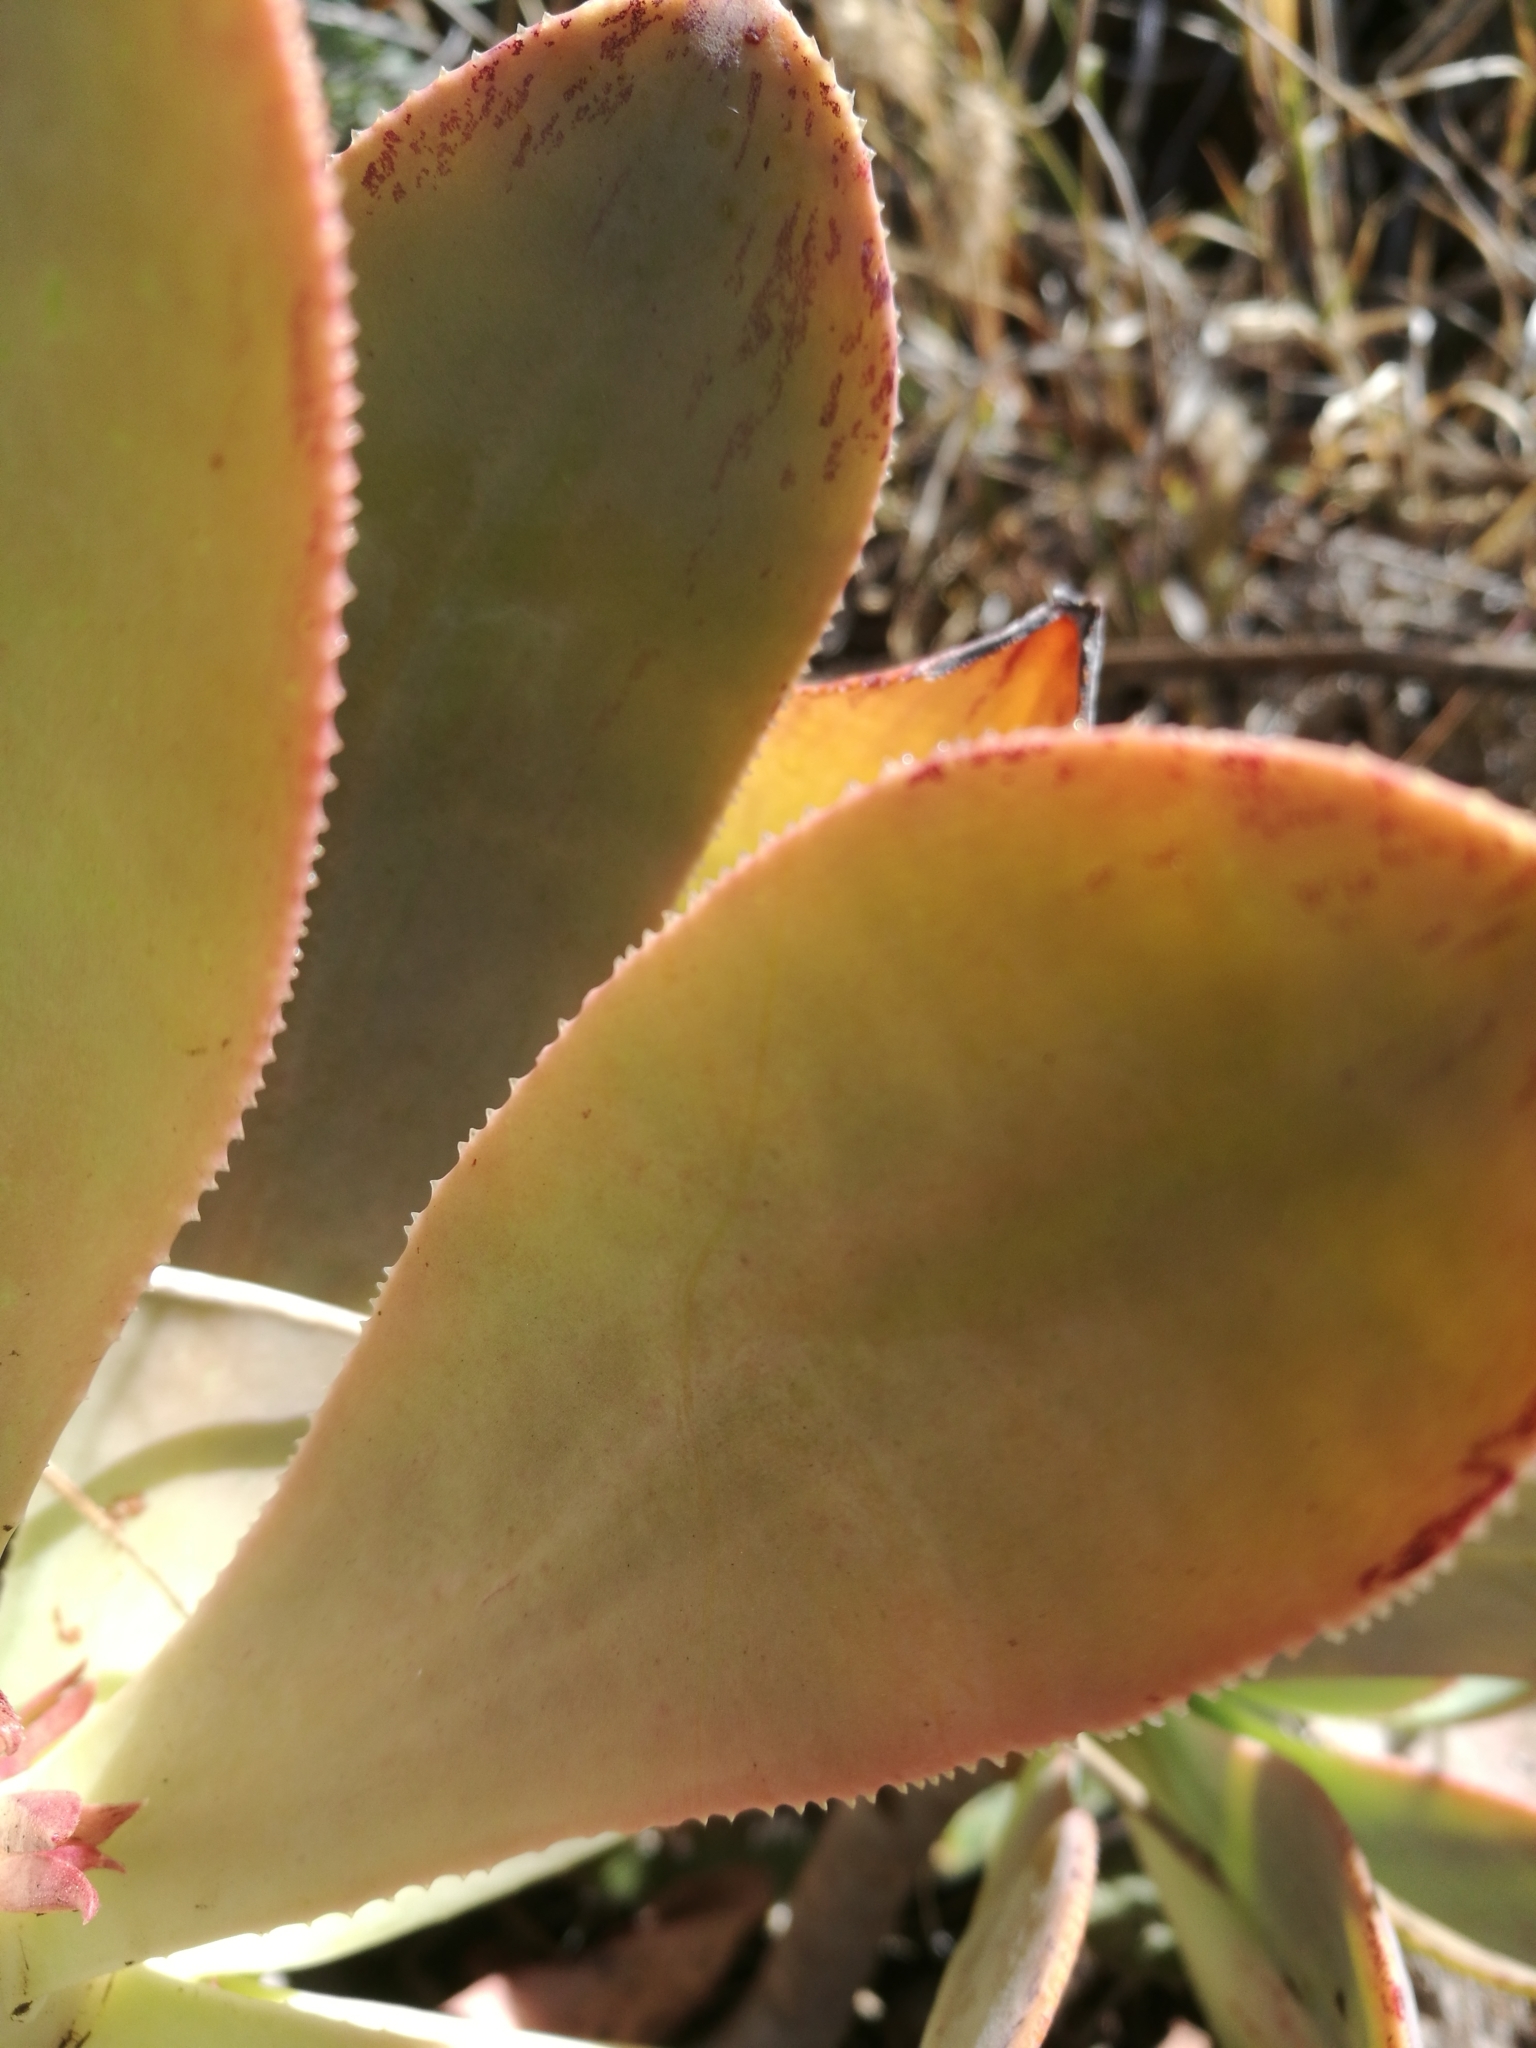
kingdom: Plantae
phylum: Tracheophyta
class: Magnoliopsida
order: Saxifragales
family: Crassulaceae
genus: Aeonium
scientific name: Aeonium davidbramwellii
